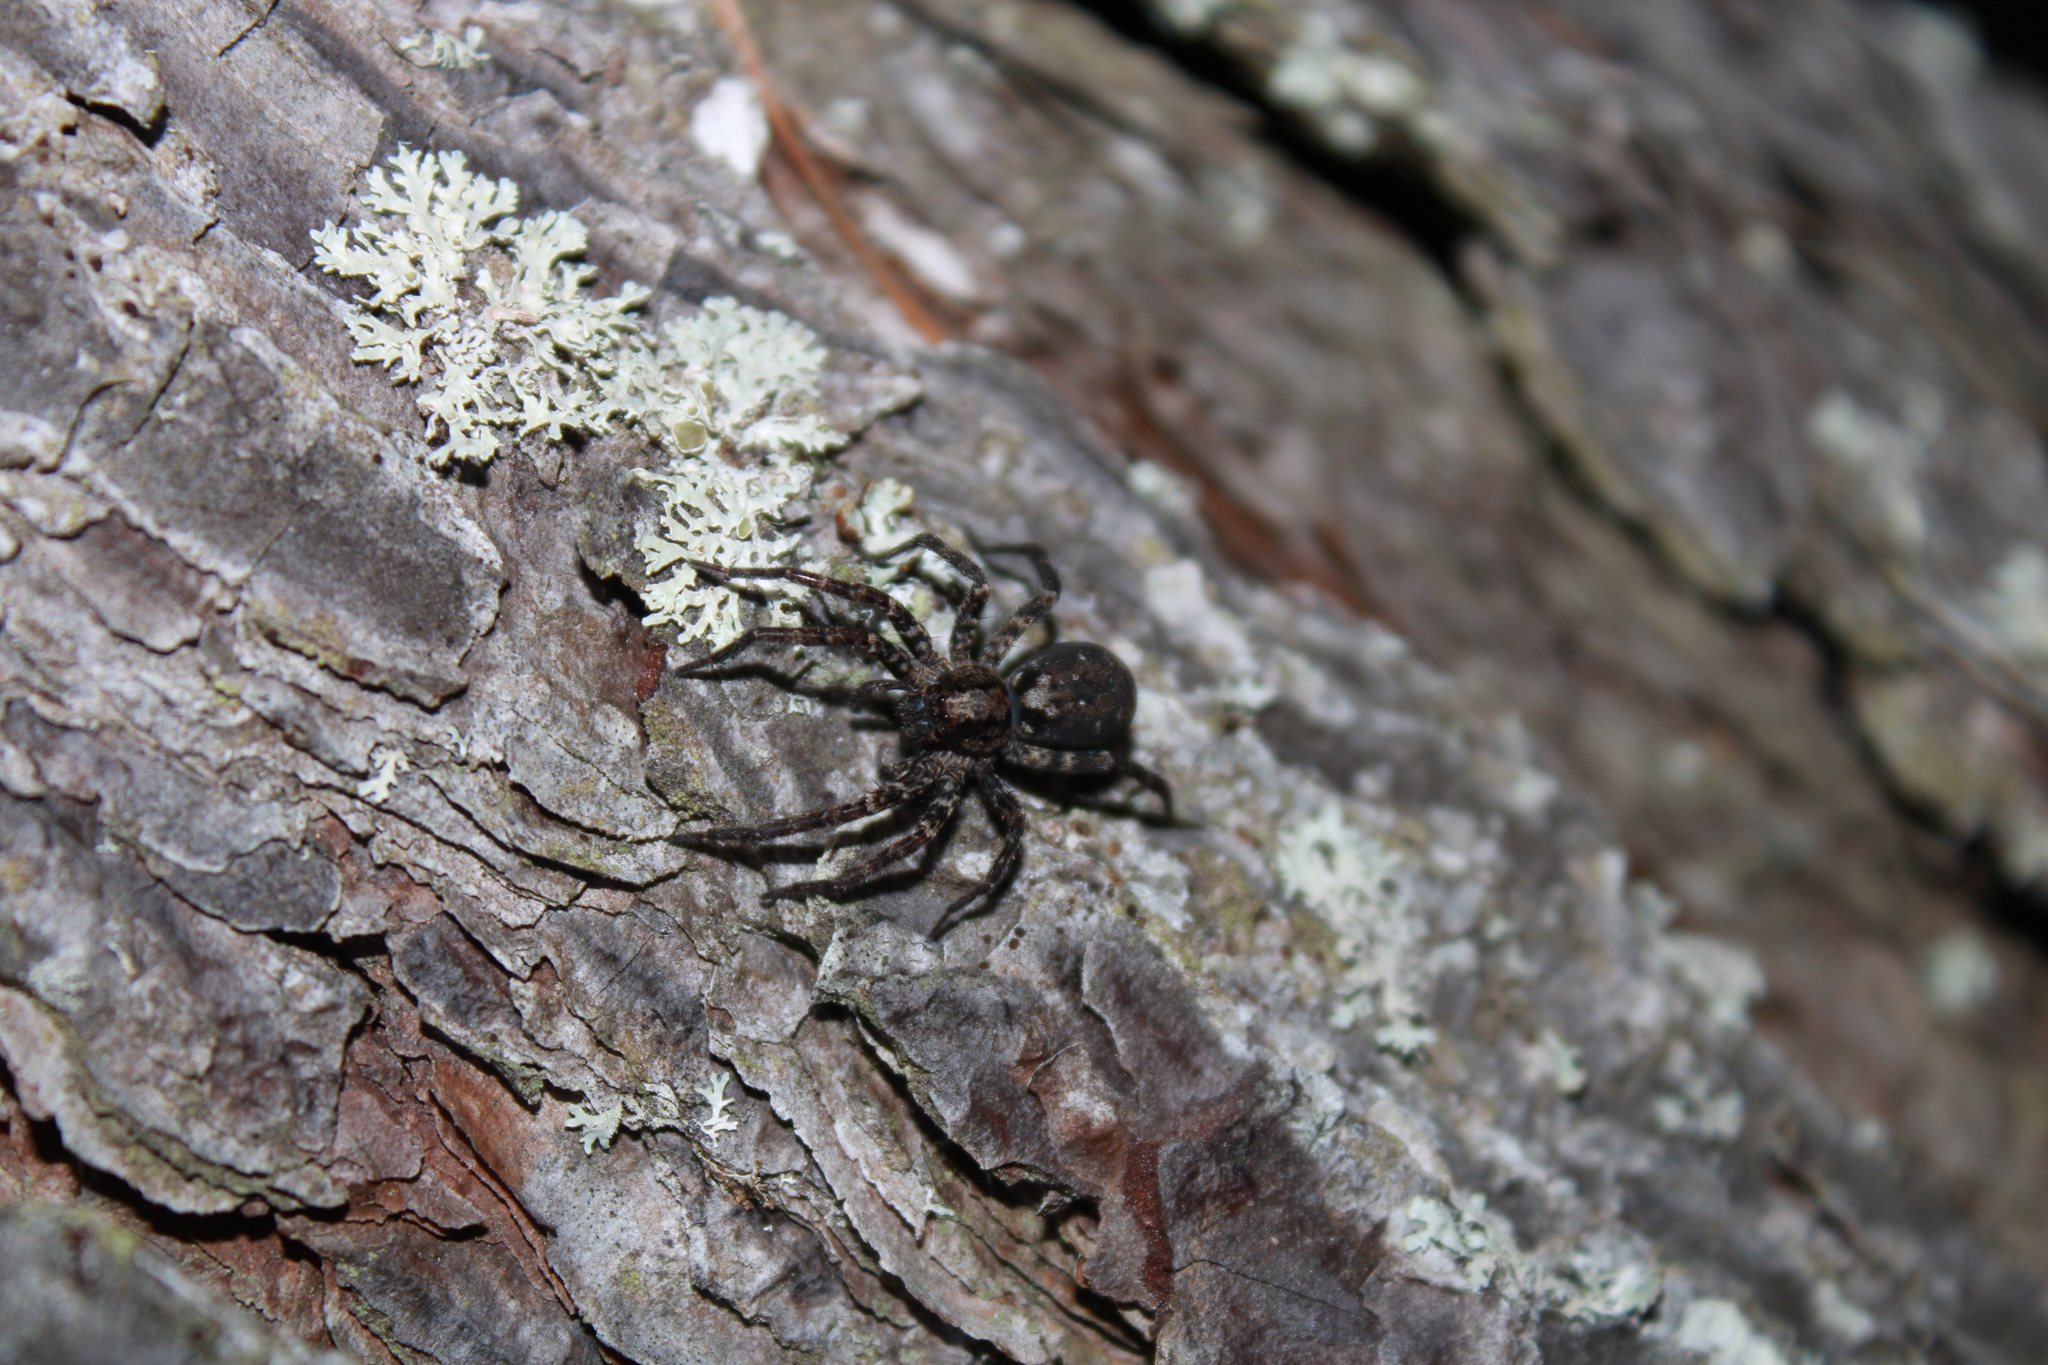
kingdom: Animalia
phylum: Arthropoda
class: Arachnida
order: Araneae
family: Lycosidae
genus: Gladicosa
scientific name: Gladicosa pulchra
